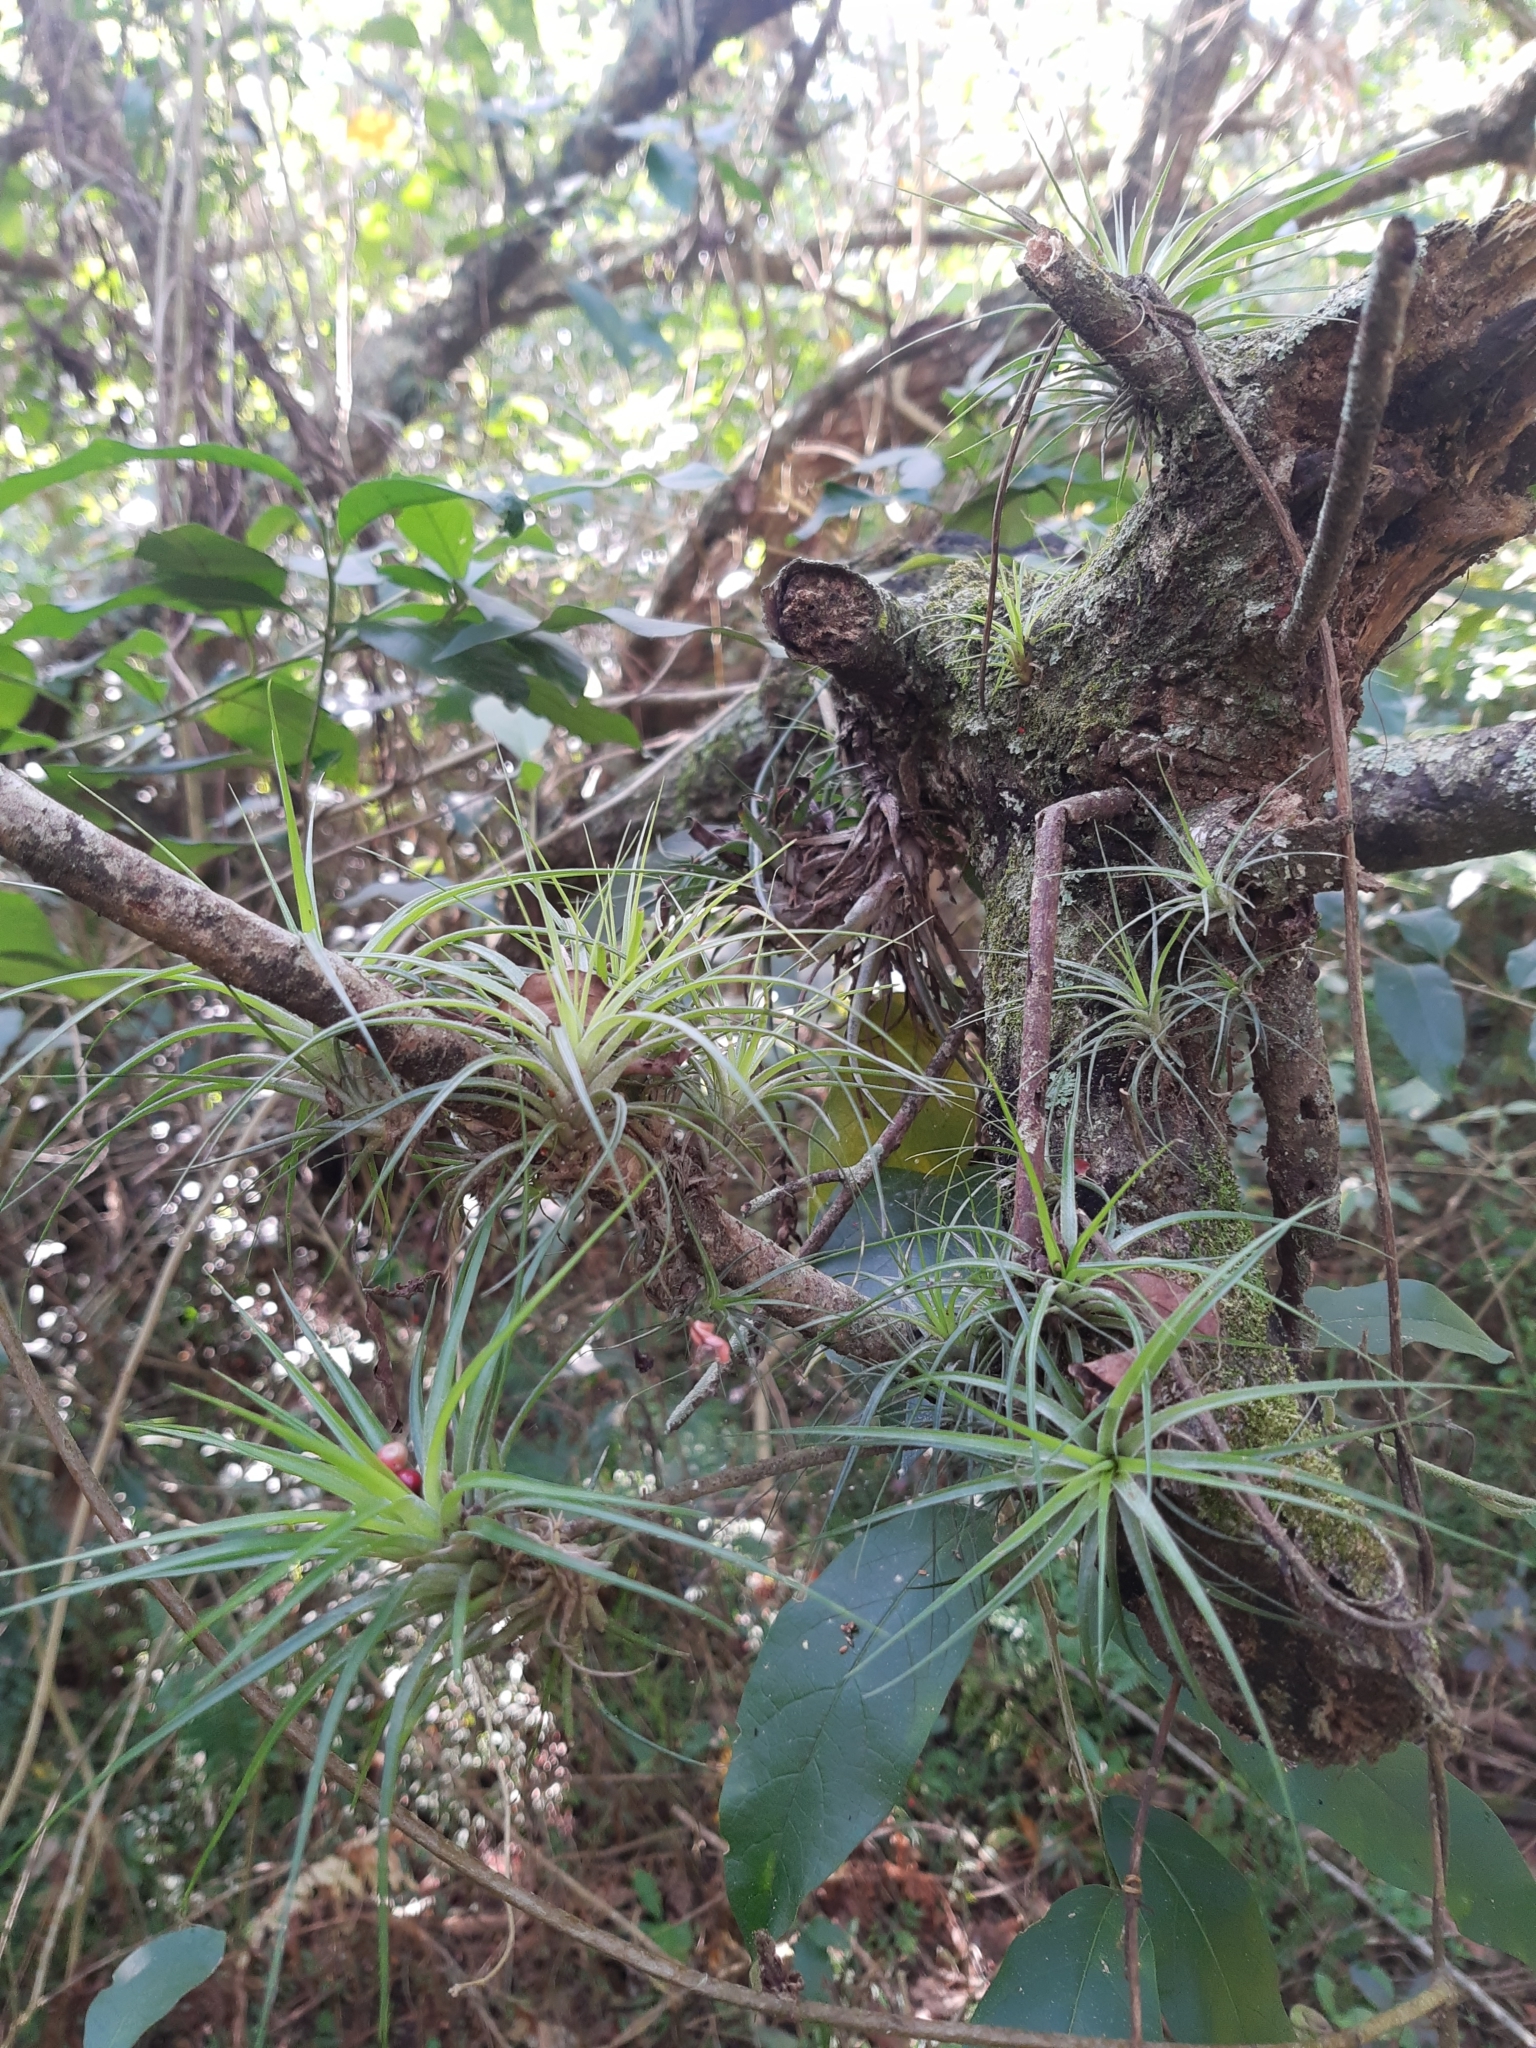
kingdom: Plantae
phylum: Tracheophyta
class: Liliopsida
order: Poales
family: Bromeliaceae
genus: Tillandsia
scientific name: Tillandsia stricta
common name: Airplant
